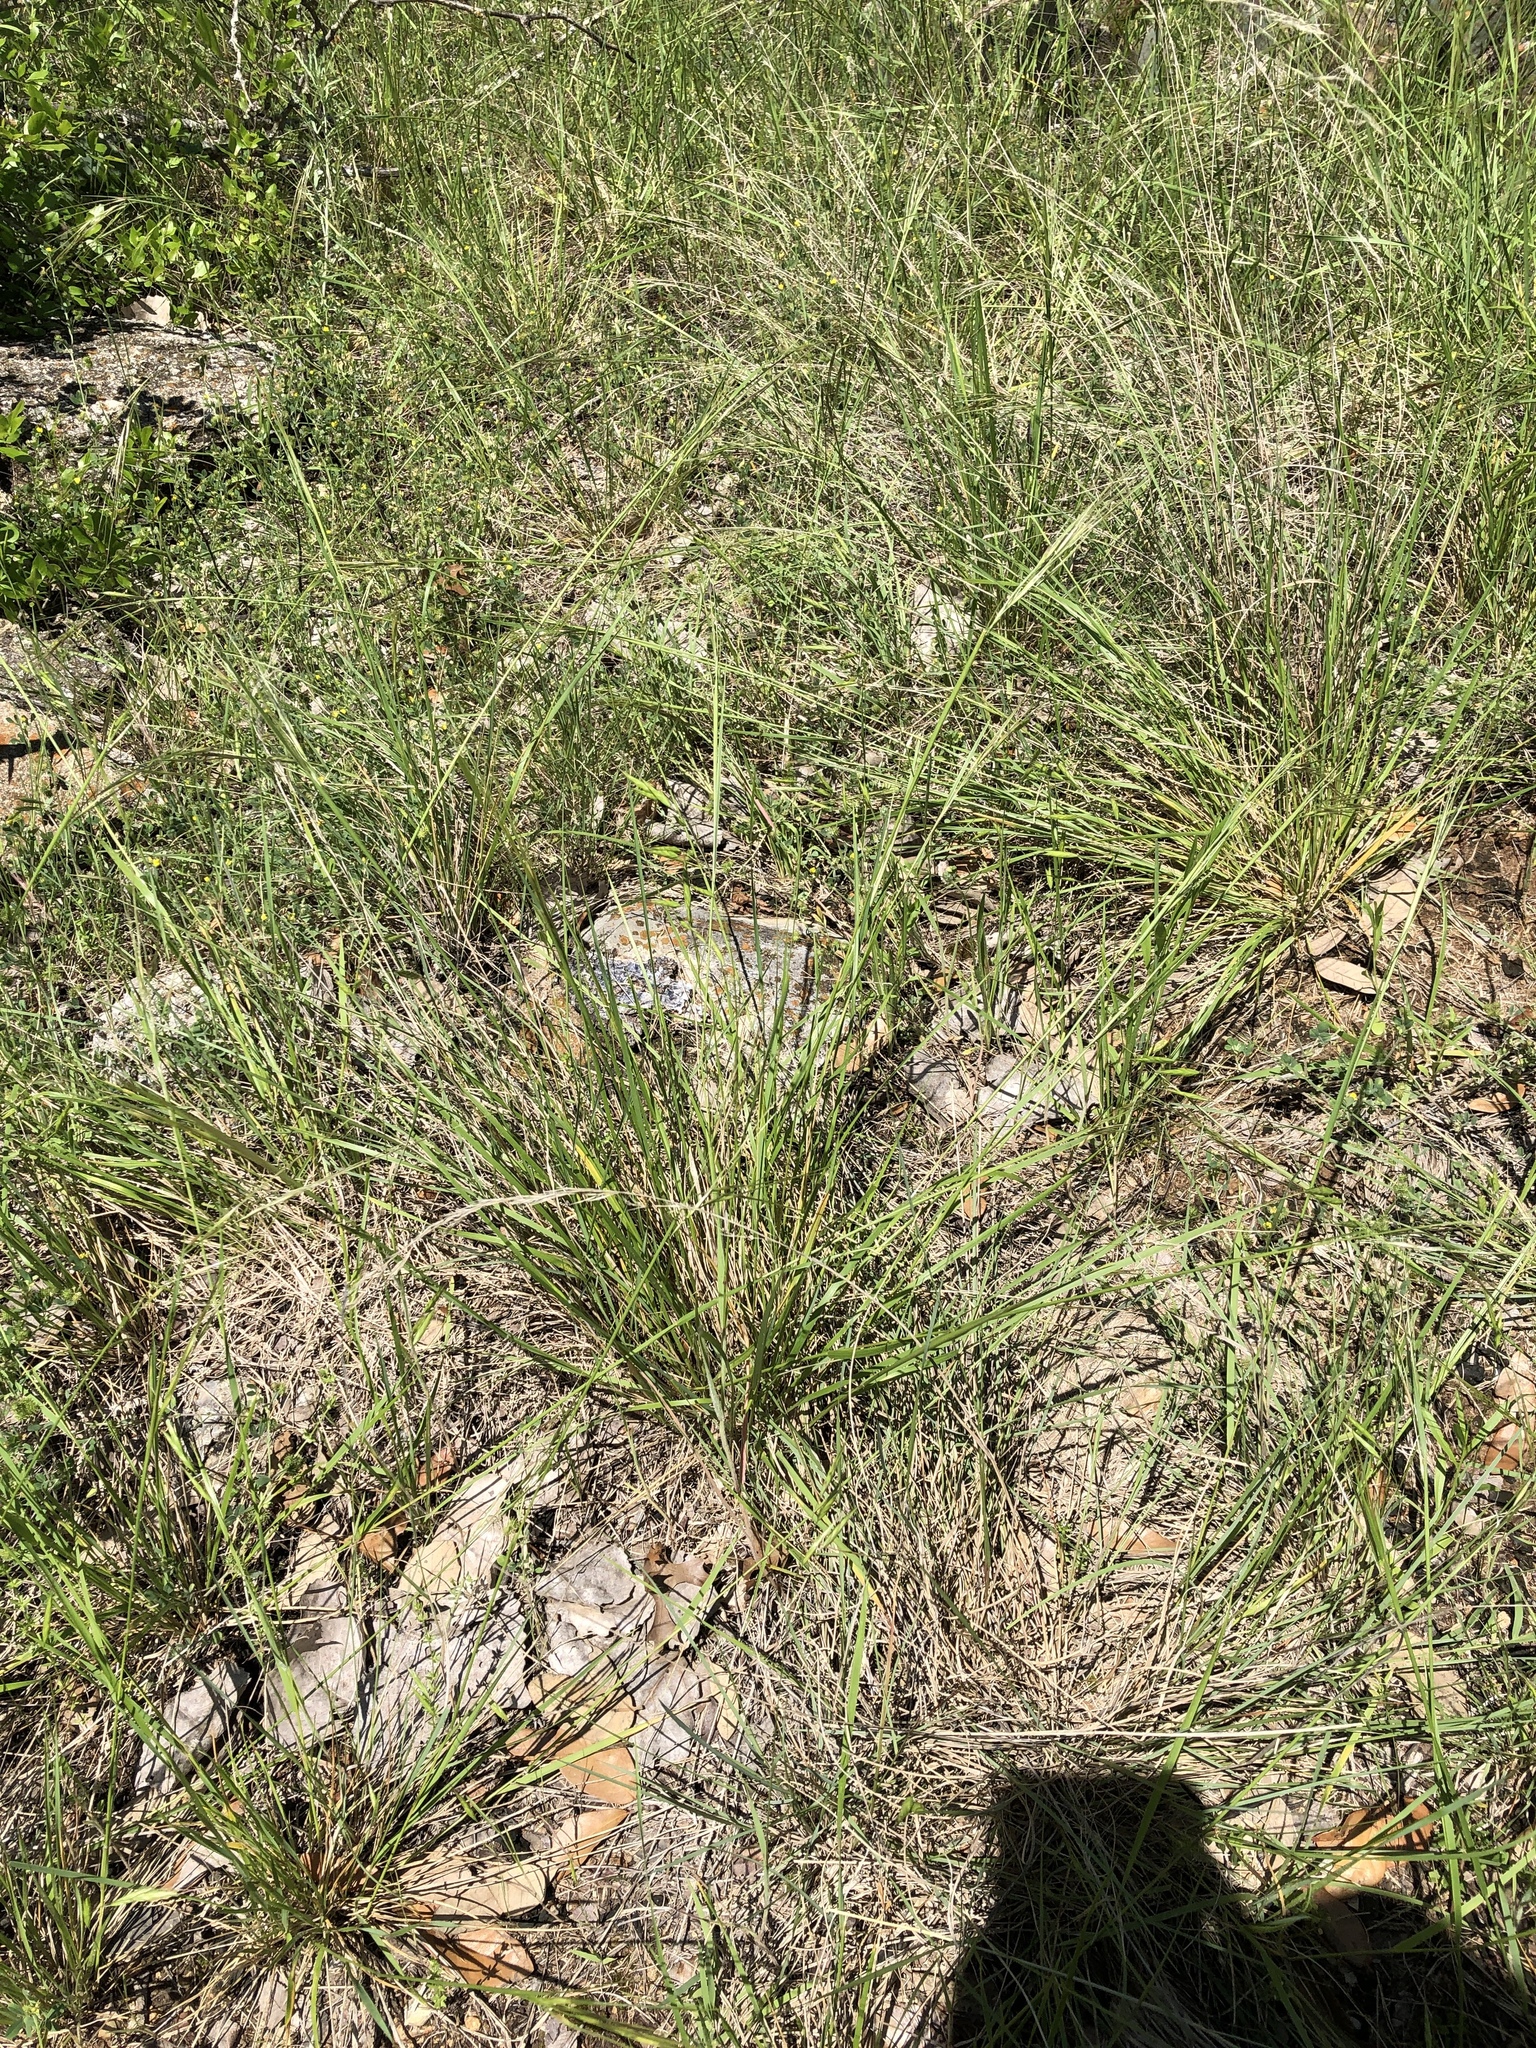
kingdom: Plantae
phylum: Tracheophyta
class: Liliopsida
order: Poales
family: Poaceae
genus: Nassella
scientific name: Nassella leucotricha
